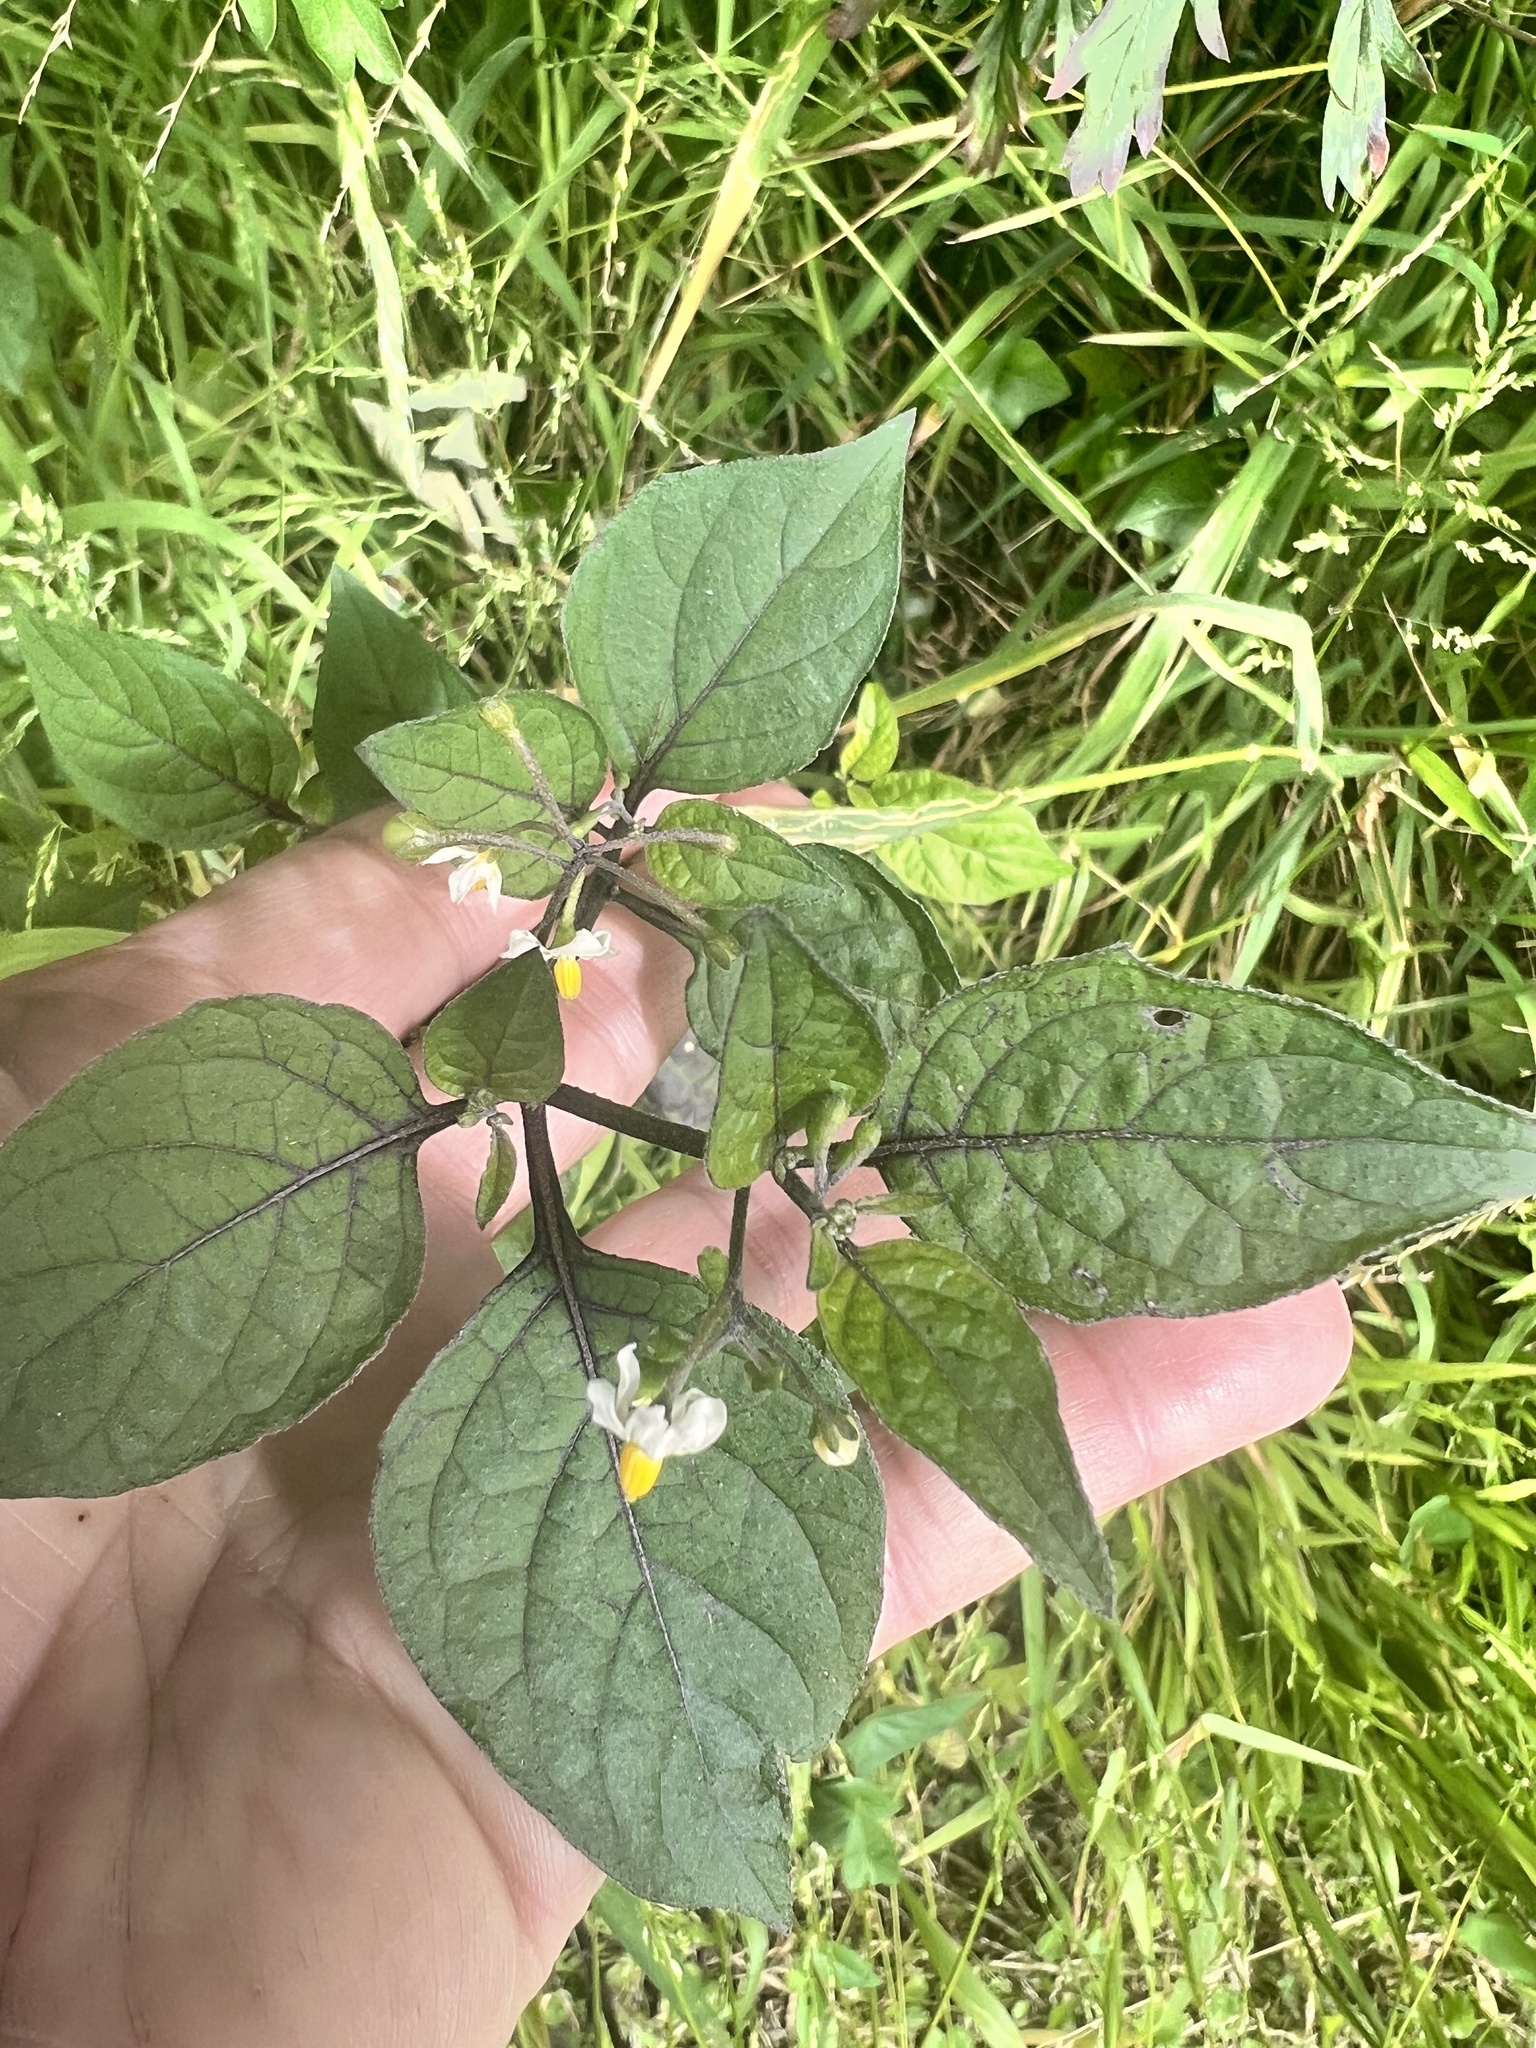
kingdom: Plantae
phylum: Tracheophyta
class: Magnoliopsida
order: Solanales
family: Solanaceae
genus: Solanum
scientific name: Solanum nigrum
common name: Black nightshade
